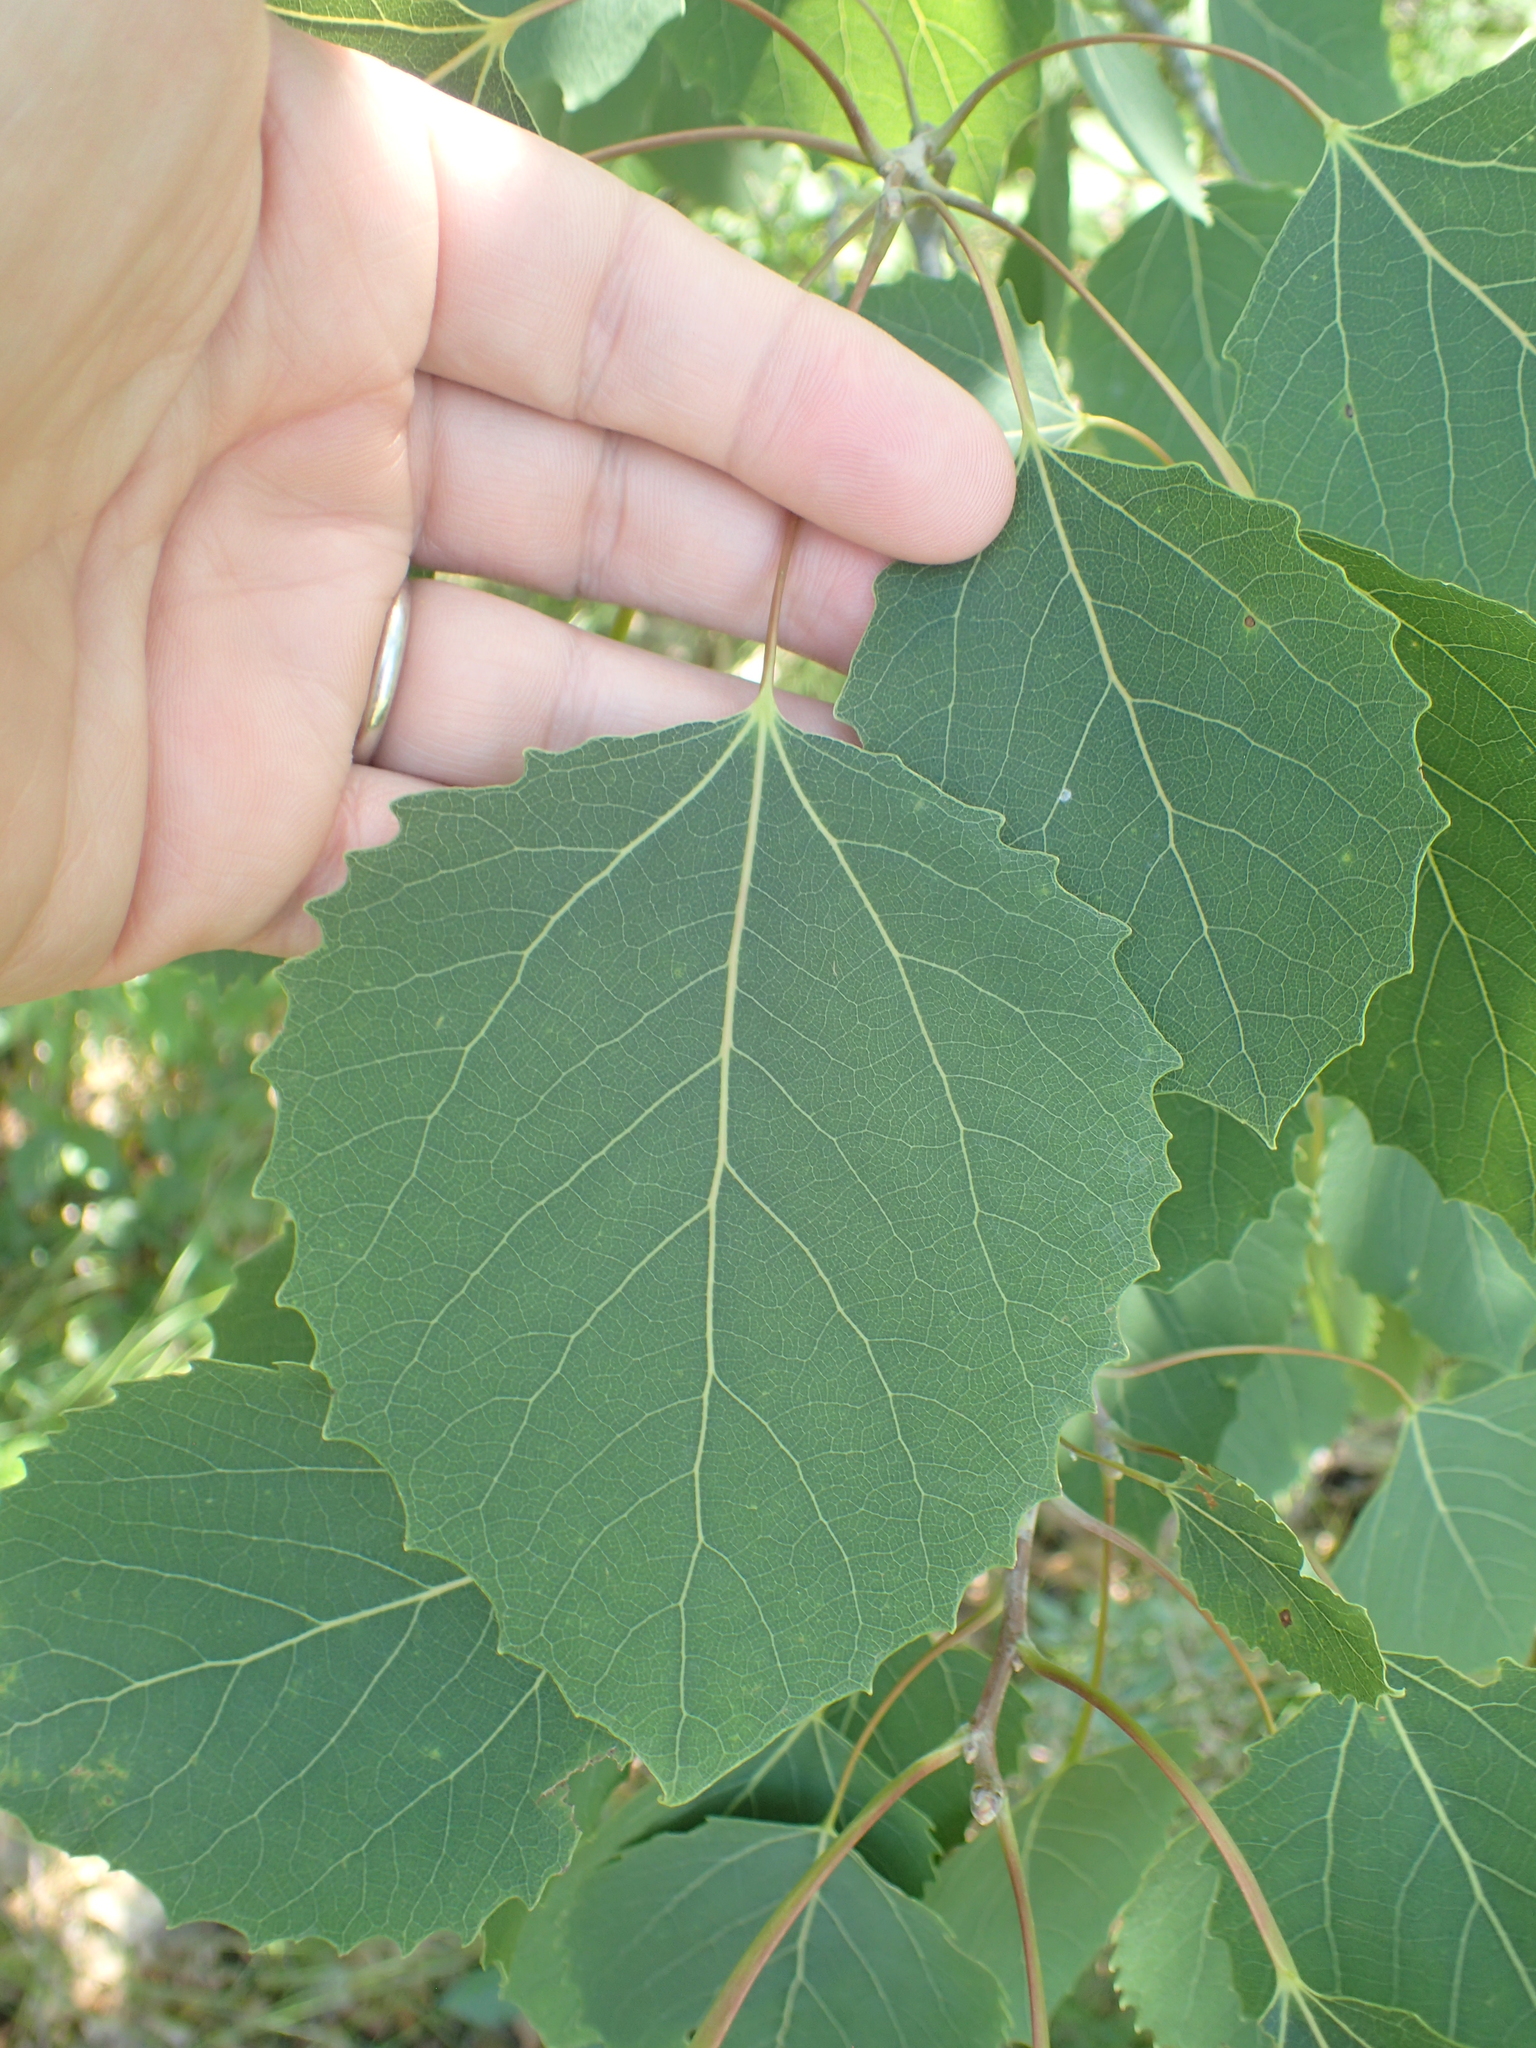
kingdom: Plantae
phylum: Tracheophyta
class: Magnoliopsida
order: Malpighiales
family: Salicaceae
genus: Populus
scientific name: Populus grandidentata
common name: Bigtooth aspen
